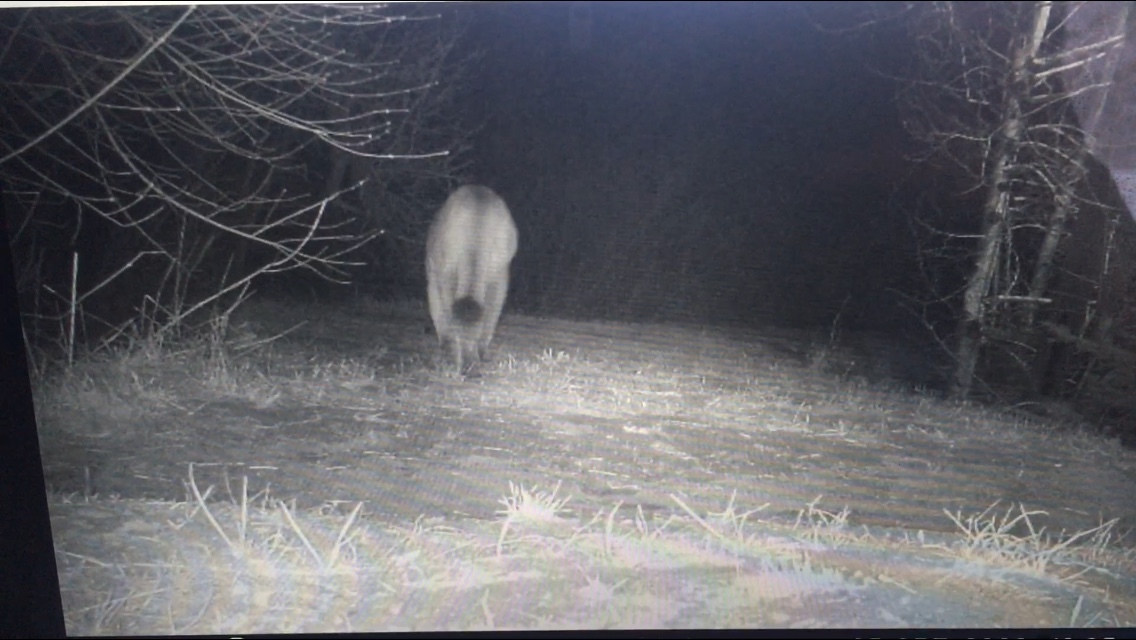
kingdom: Animalia
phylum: Chordata
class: Mammalia
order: Carnivora
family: Felidae
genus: Puma
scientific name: Puma concolor
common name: Puma
